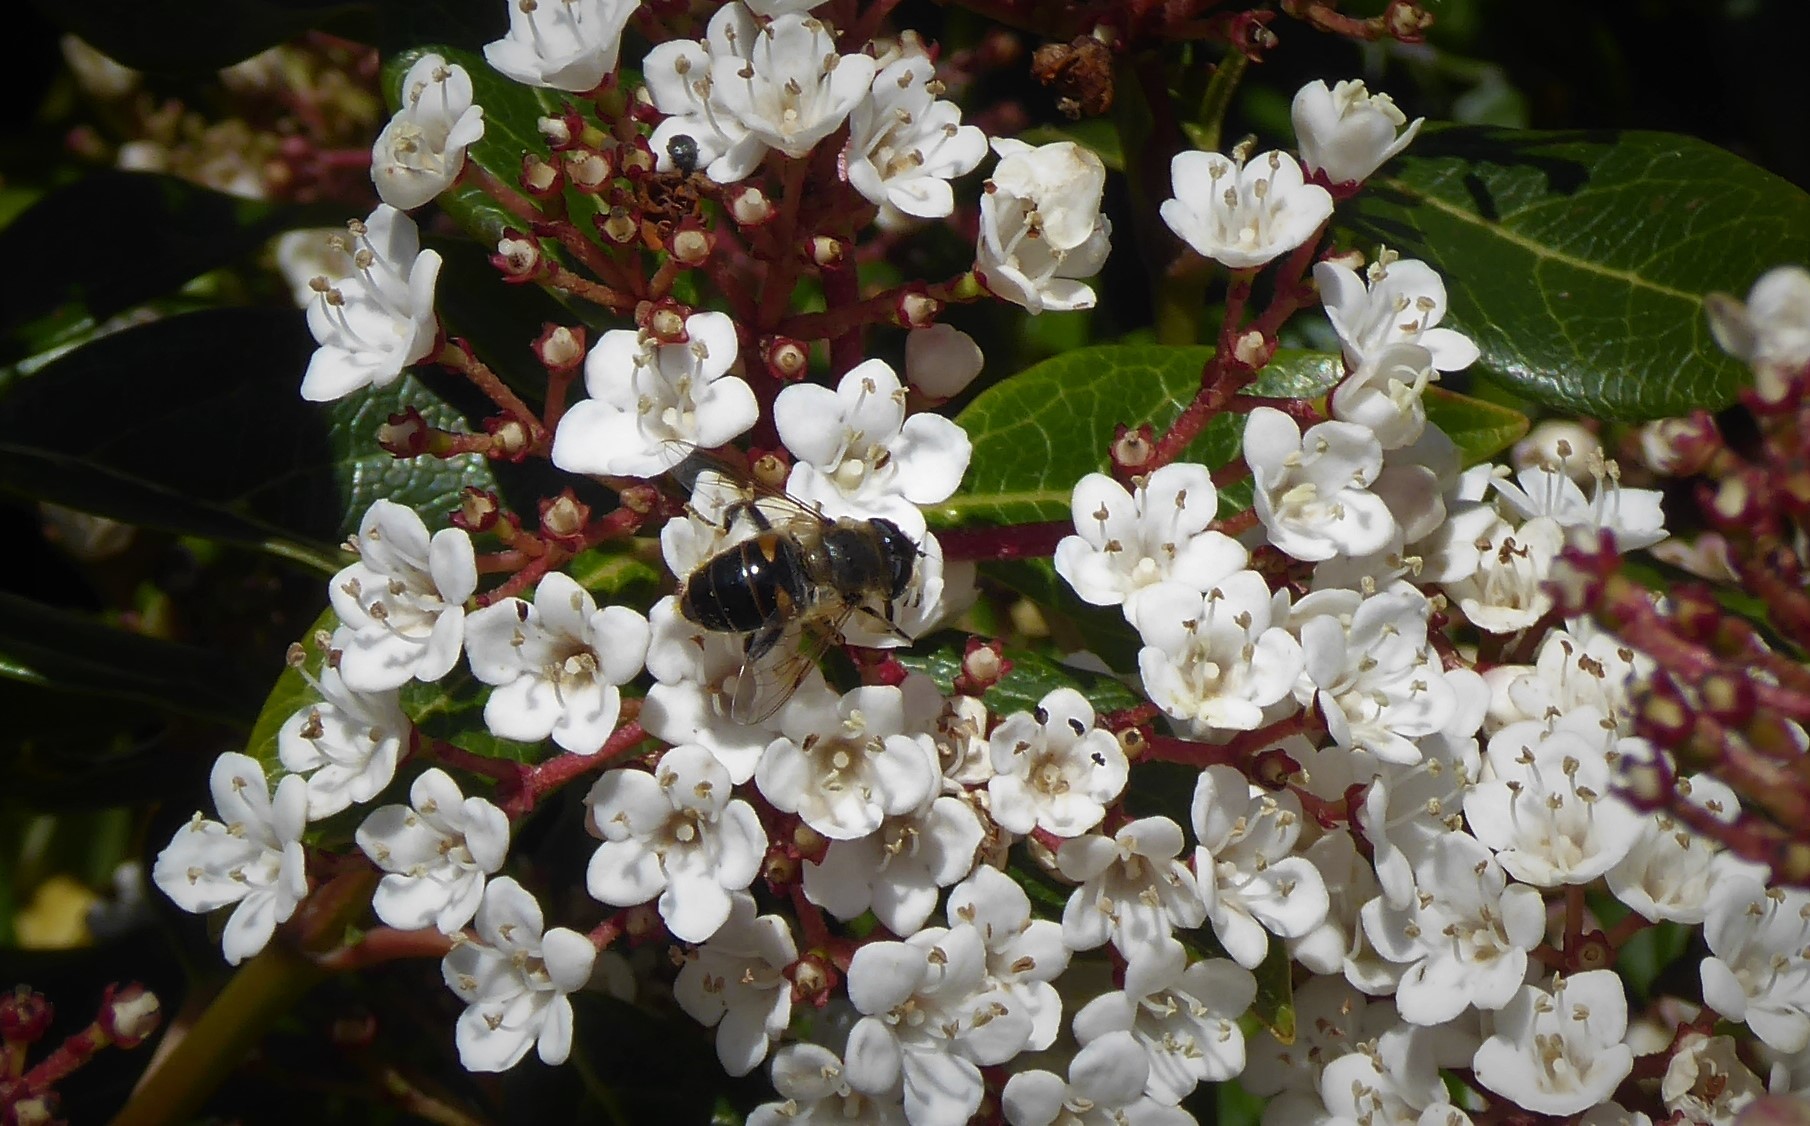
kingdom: Animalia
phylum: Arthropoda
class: Insecta
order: Diptera
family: Syrphidae
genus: Eristalis
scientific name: Eristalis tenax
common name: Drone fly
